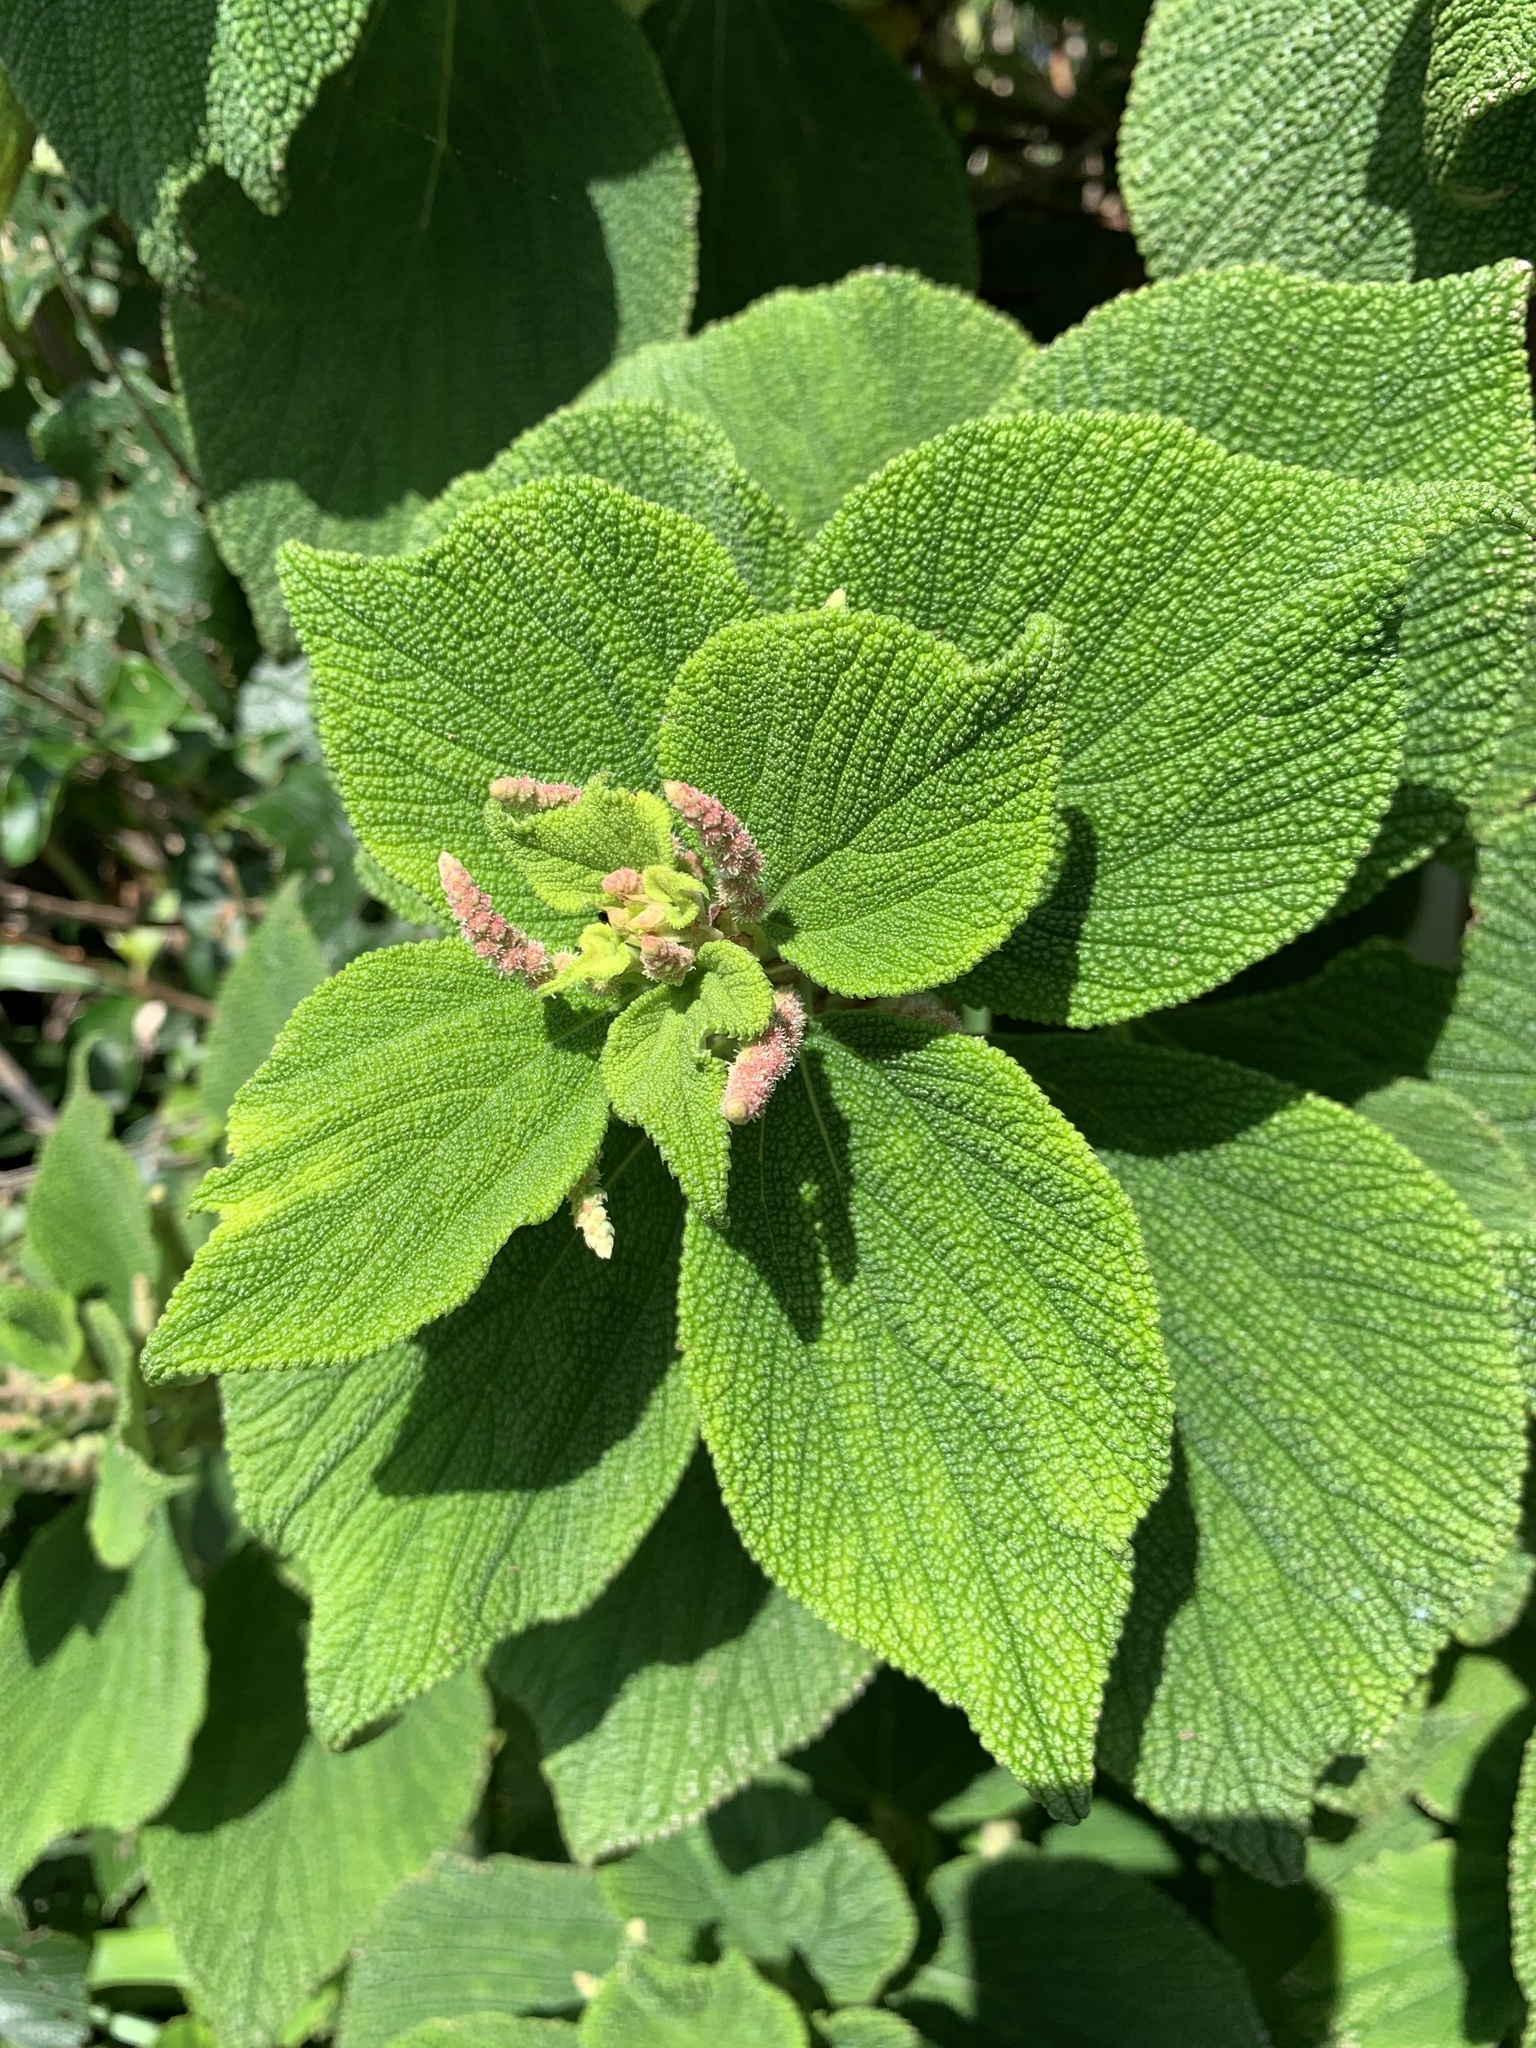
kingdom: Plantae
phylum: Tracheophyta
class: Magnoliopsida
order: Rosales
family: Urticaceae
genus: Boehmeria
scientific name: Boehmeria splitgerbera
